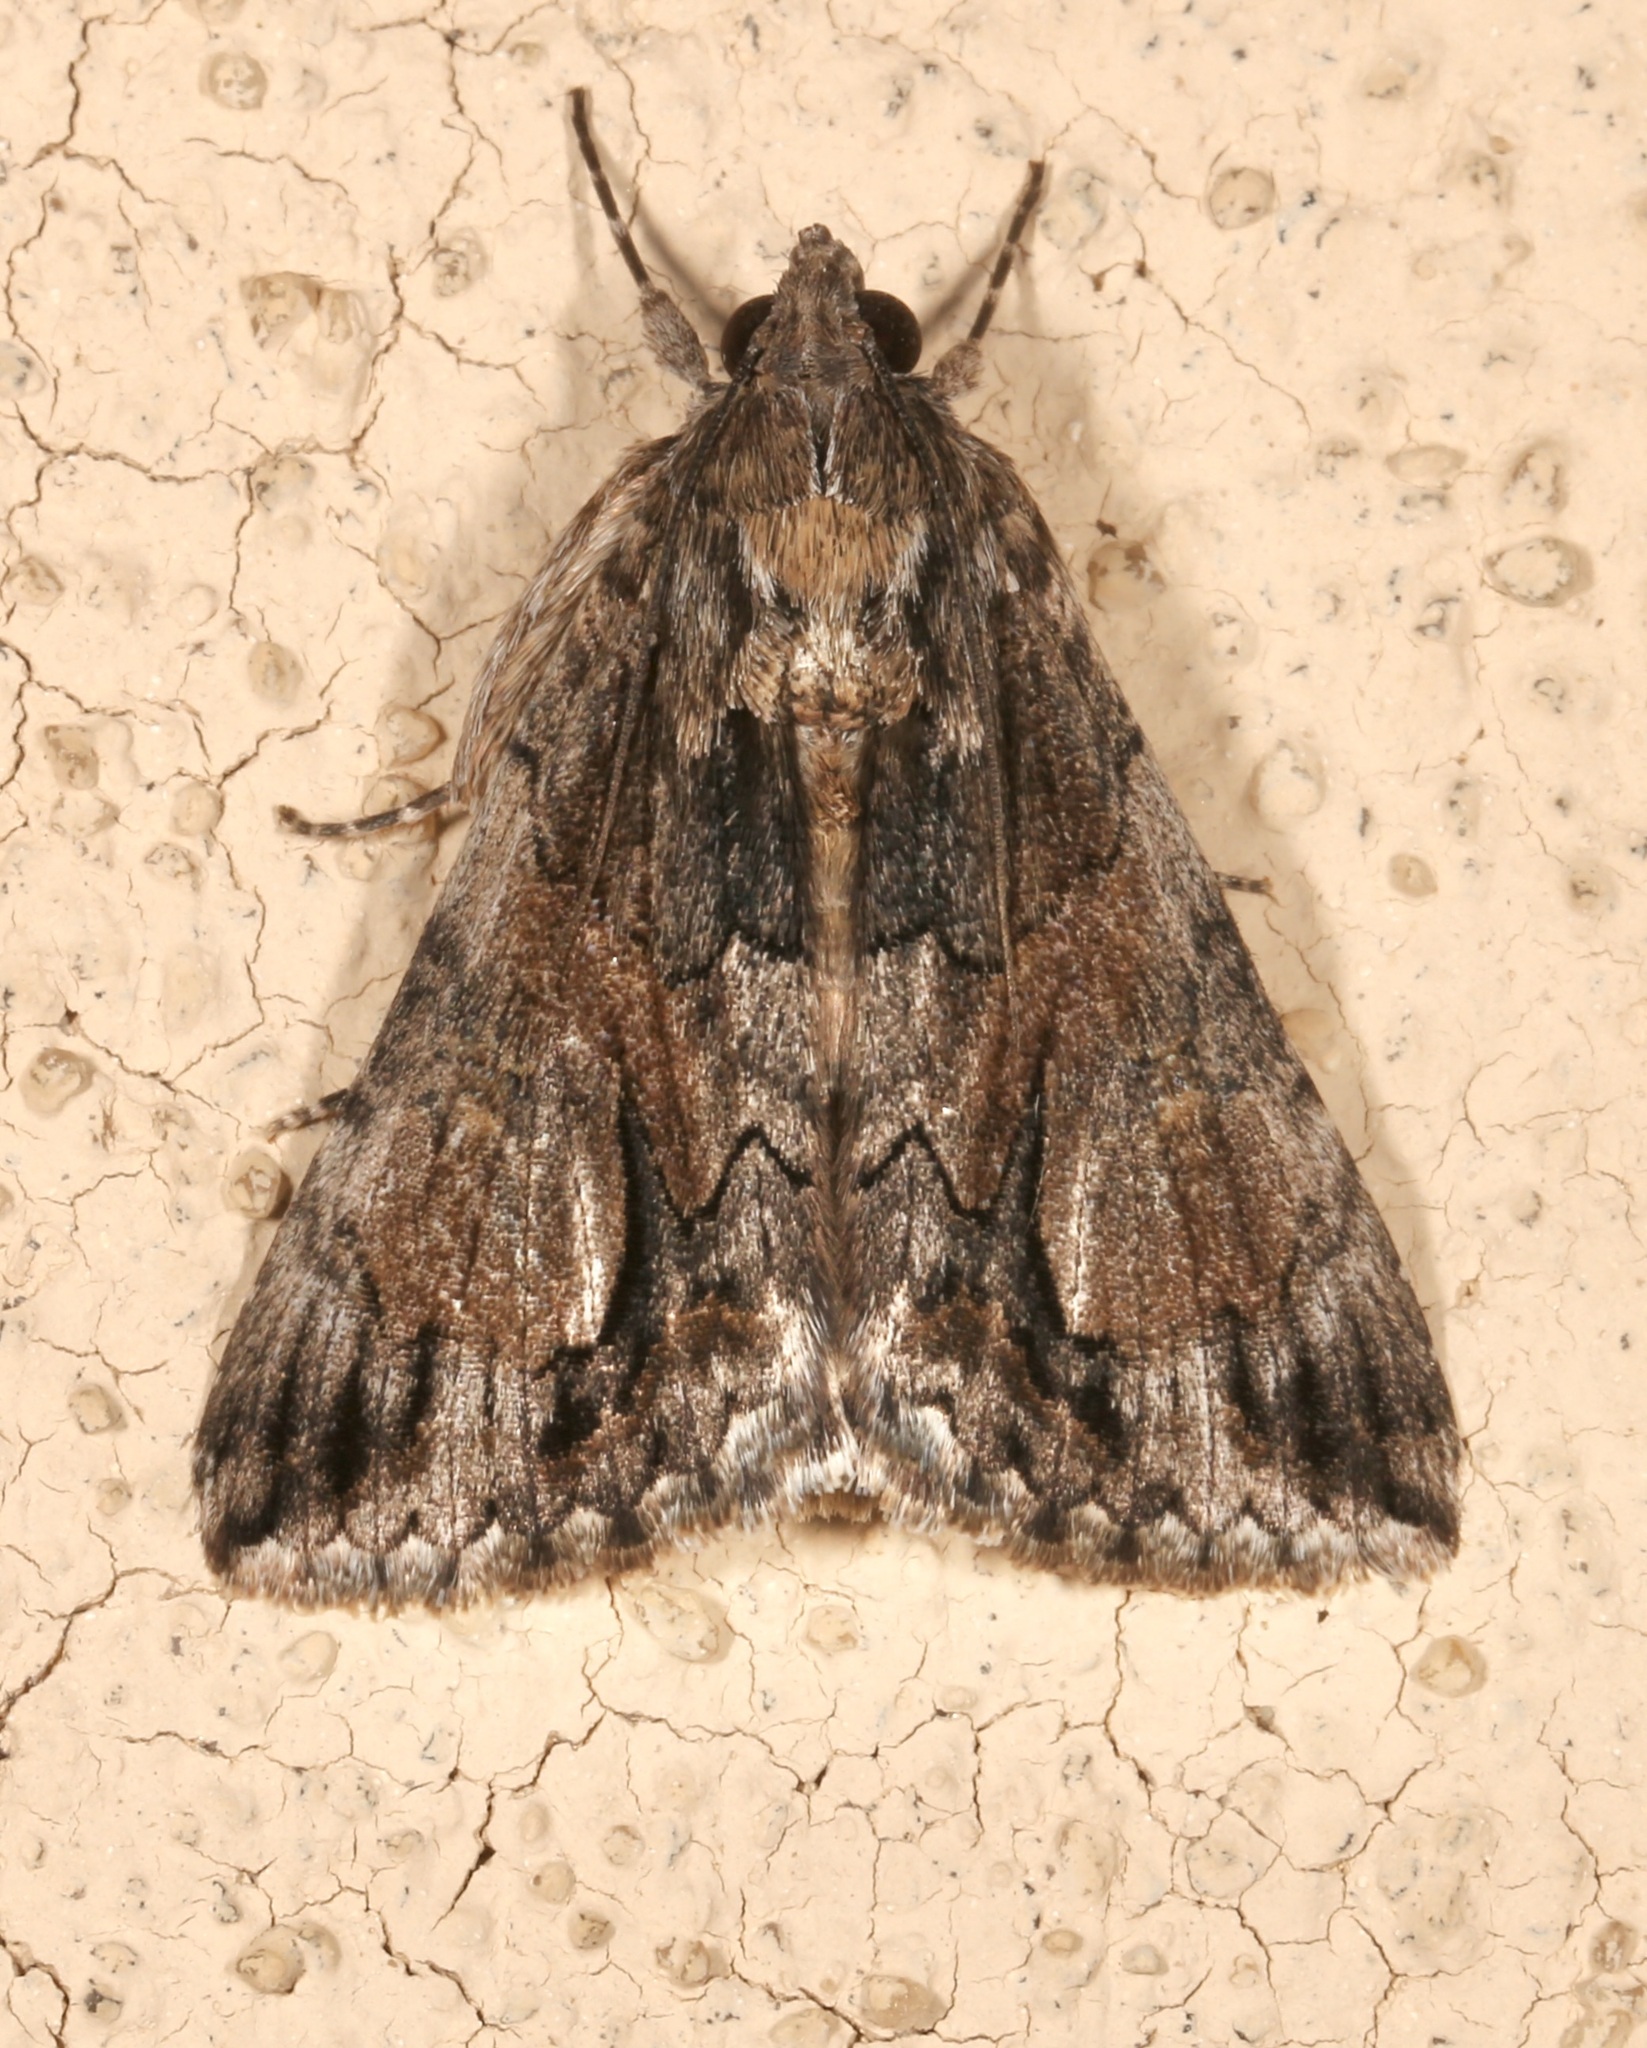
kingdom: Animalia
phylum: Arthropoda
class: Insecta
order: Lepidoptera
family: Erebidae
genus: Melipotis
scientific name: Melipotis jucunda
